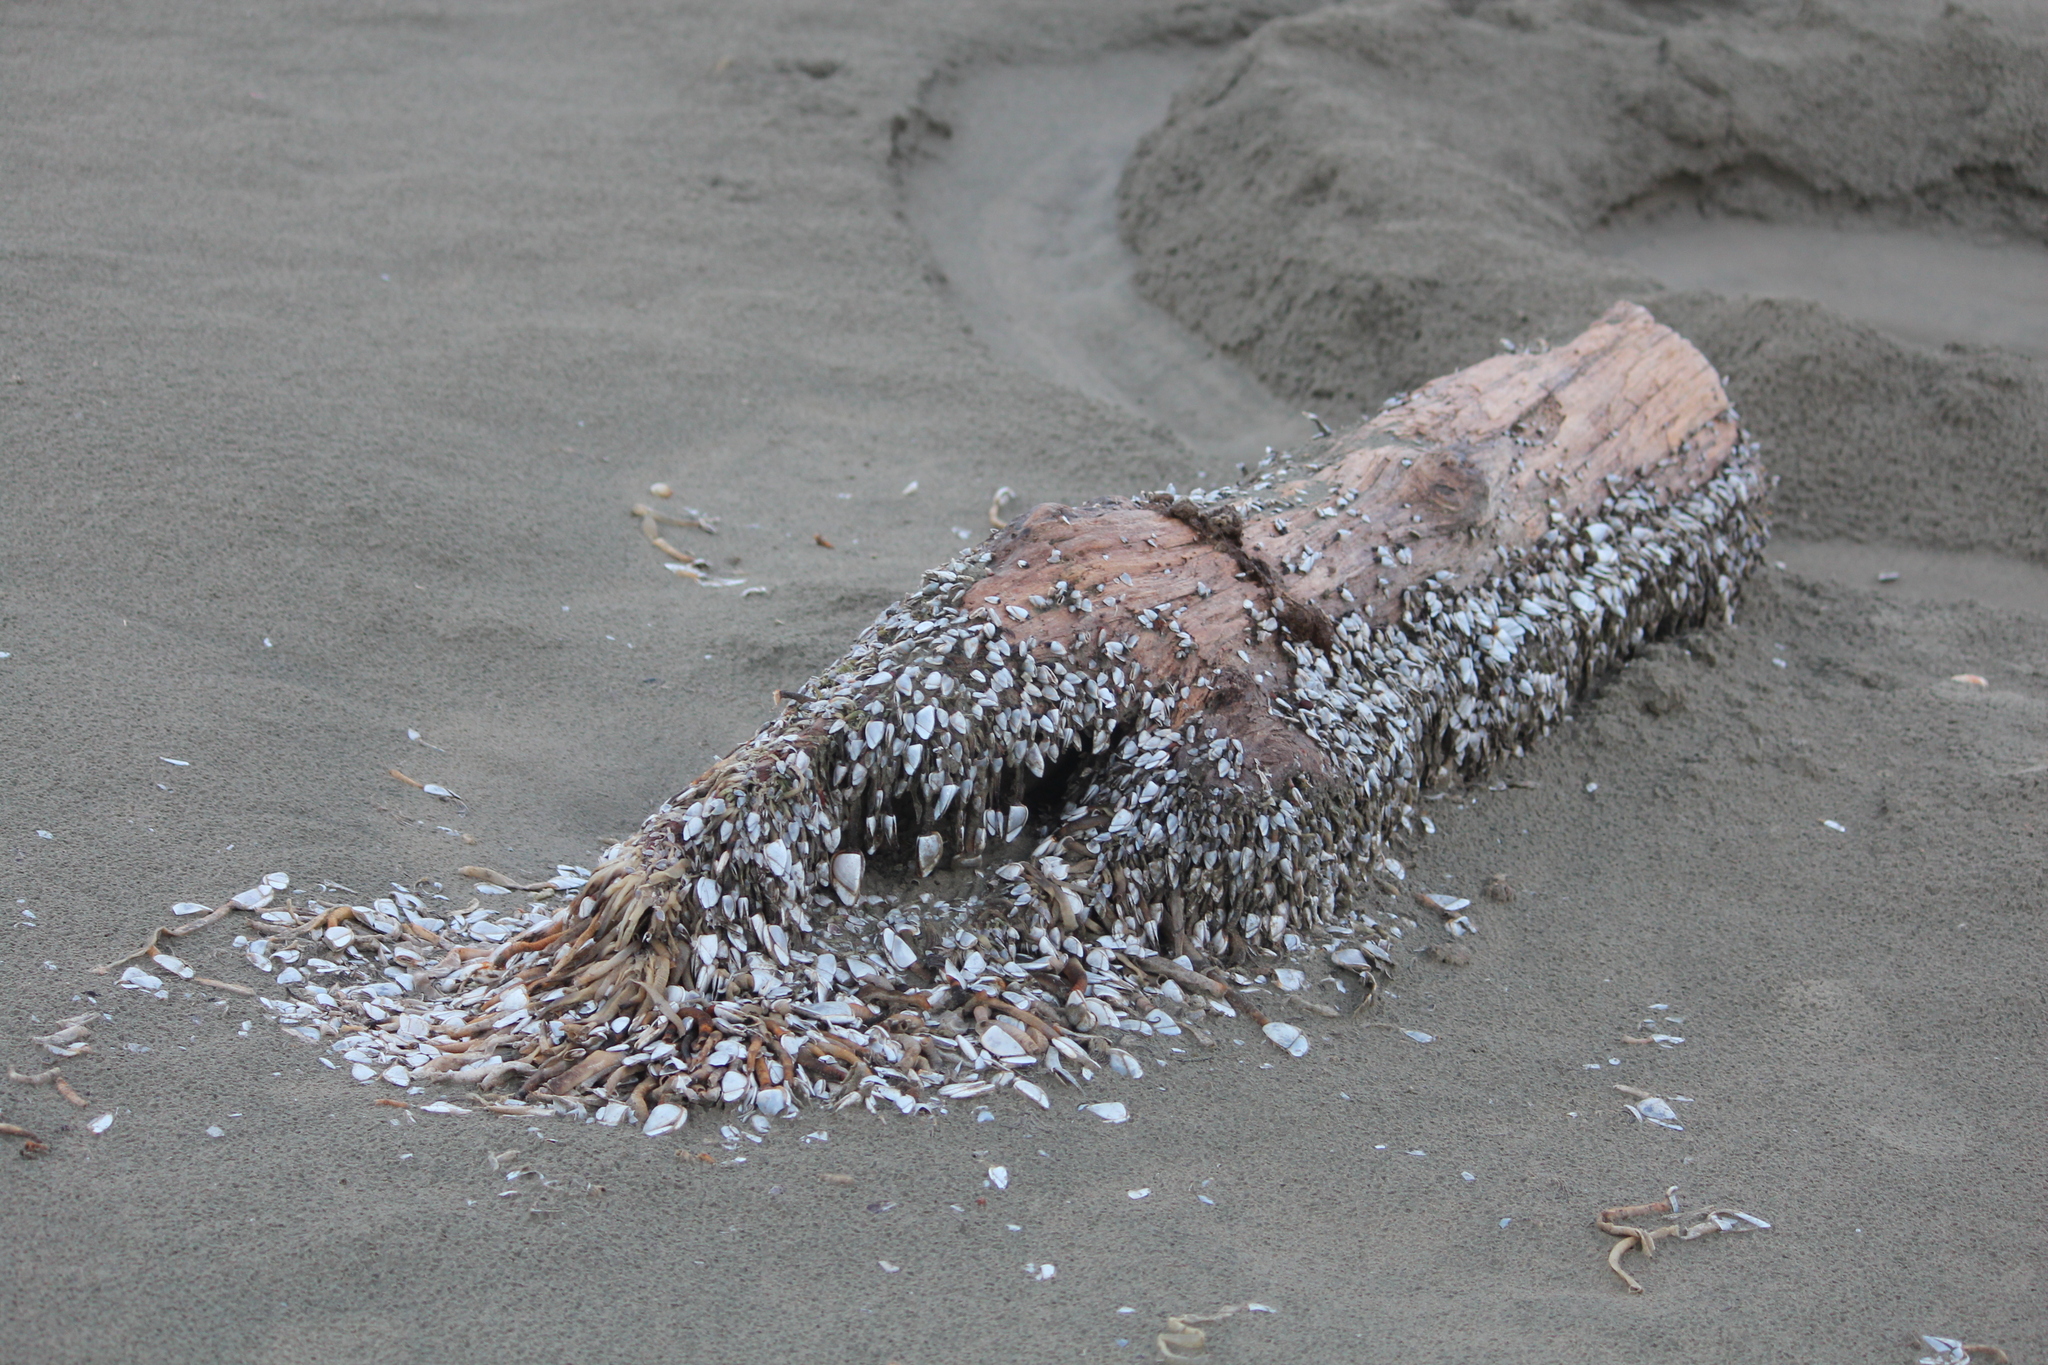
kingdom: Animalia
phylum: Arthropoda
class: Maxillopoda
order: Pedunculata
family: Lepadidae
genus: Lepas
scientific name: Lepas anatifera
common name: Common goose barnacle
